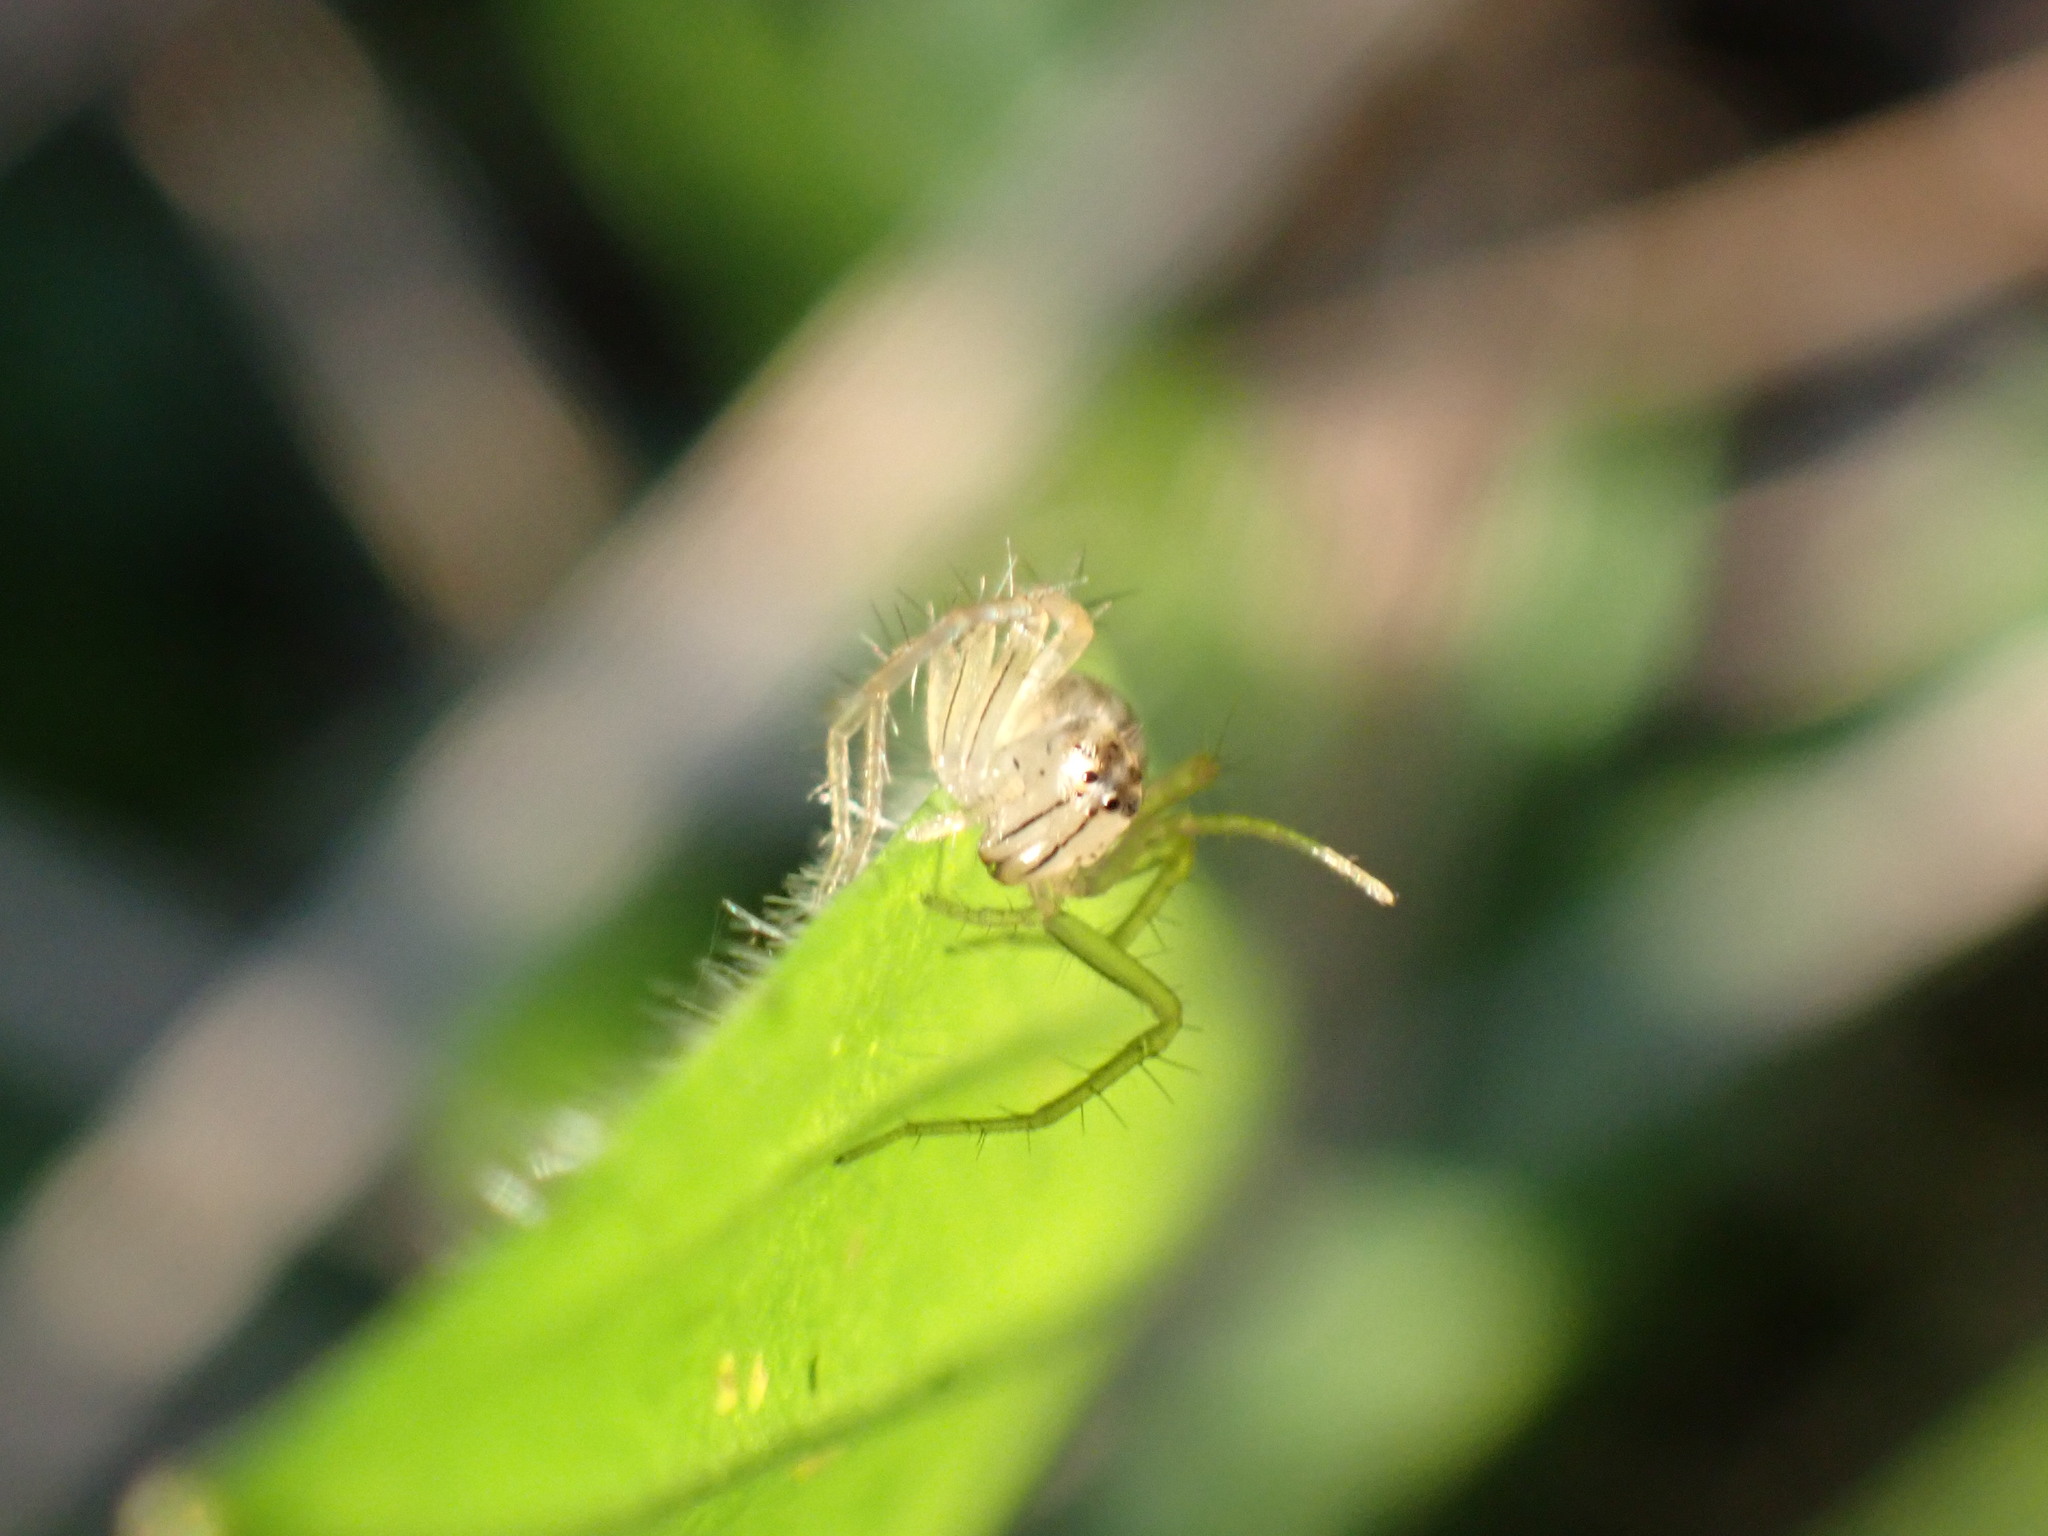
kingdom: Animalia
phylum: Arthropoda
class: Arachnida
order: Araneae
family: Oxyopidae
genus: Oxyopes
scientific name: Oxyopes salticus
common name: Lynx spiders
